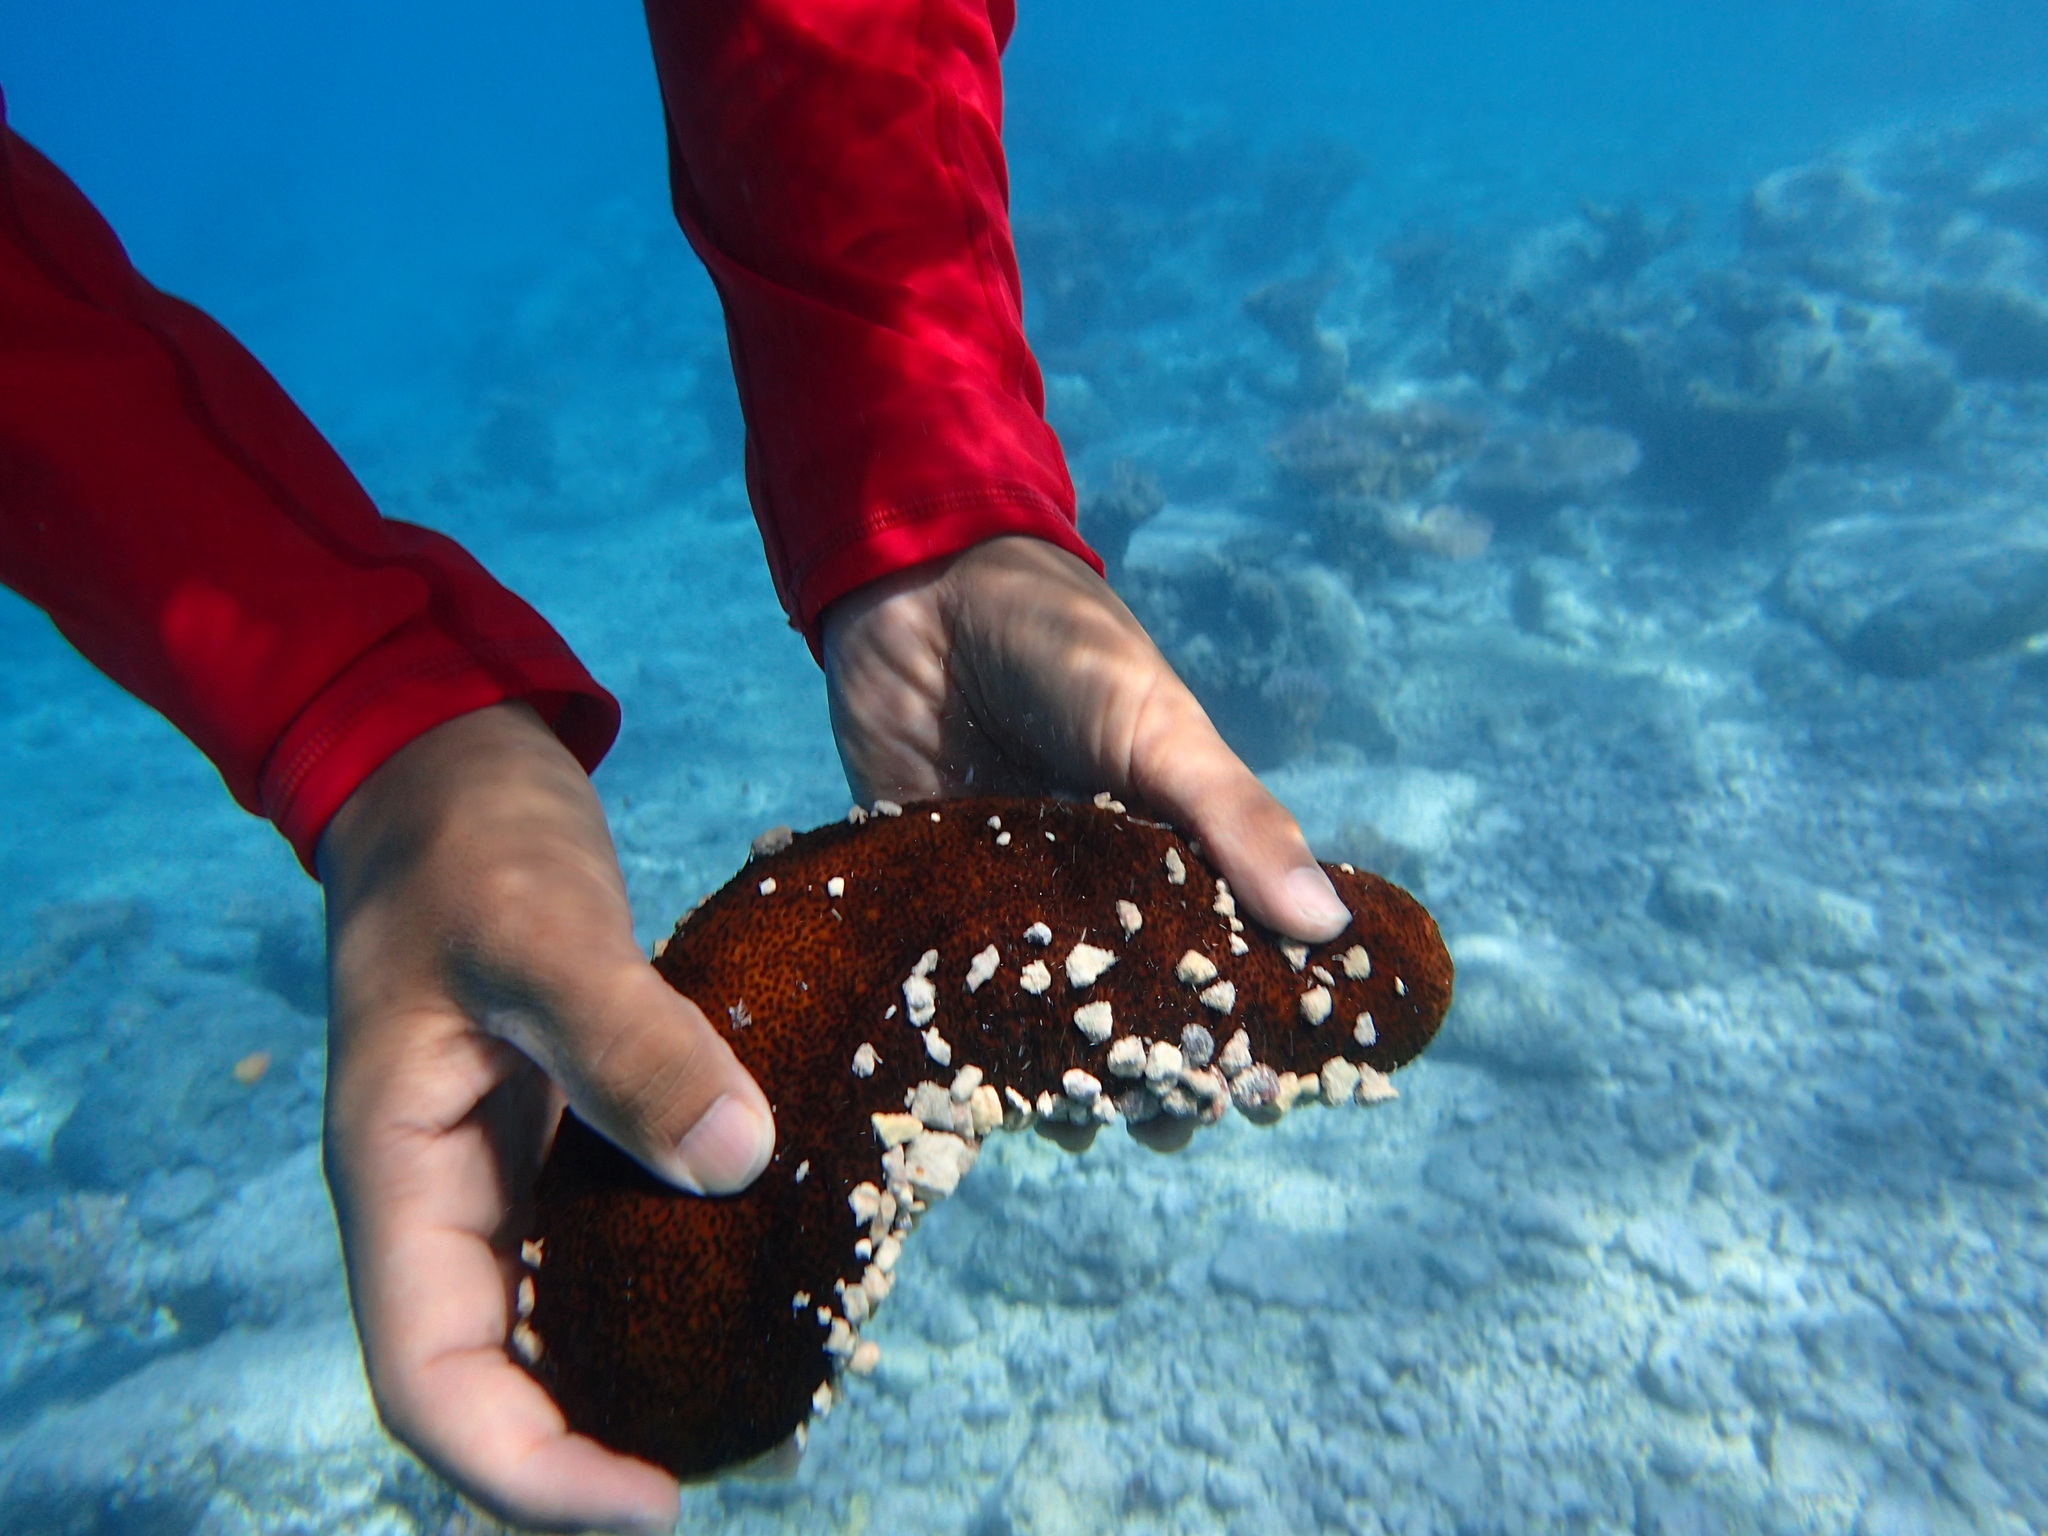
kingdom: Animalia
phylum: Echinodermata
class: Holothuroidea
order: Holothuriida
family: Holothuriidae
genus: Bohadschia
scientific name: Bohadschia paradoxa
